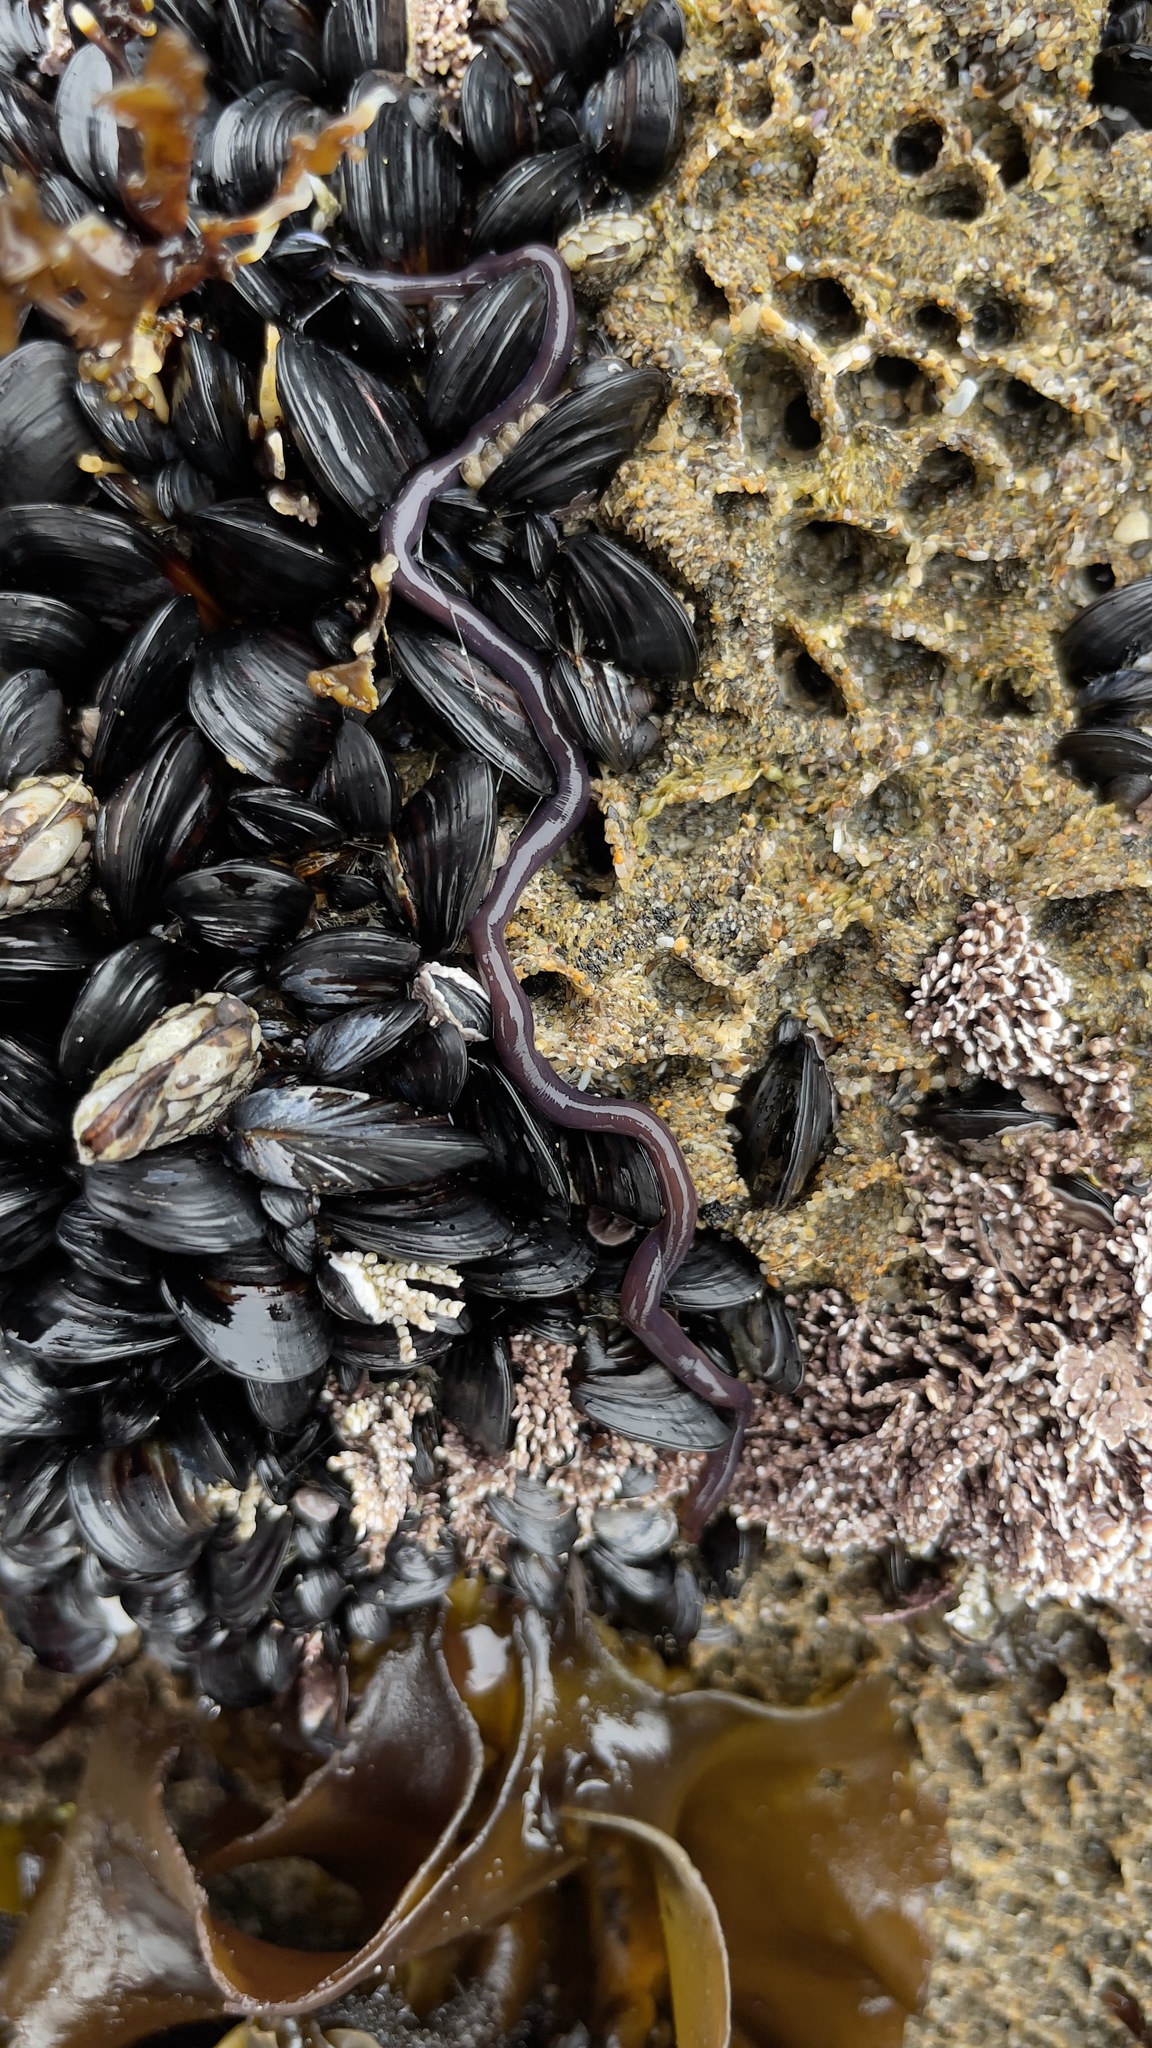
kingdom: Animalia
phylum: Annelida
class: Polychaeta
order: Sabellida
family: Sabellariidae
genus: Phragmatopoma
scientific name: Phragmatopoma californica
